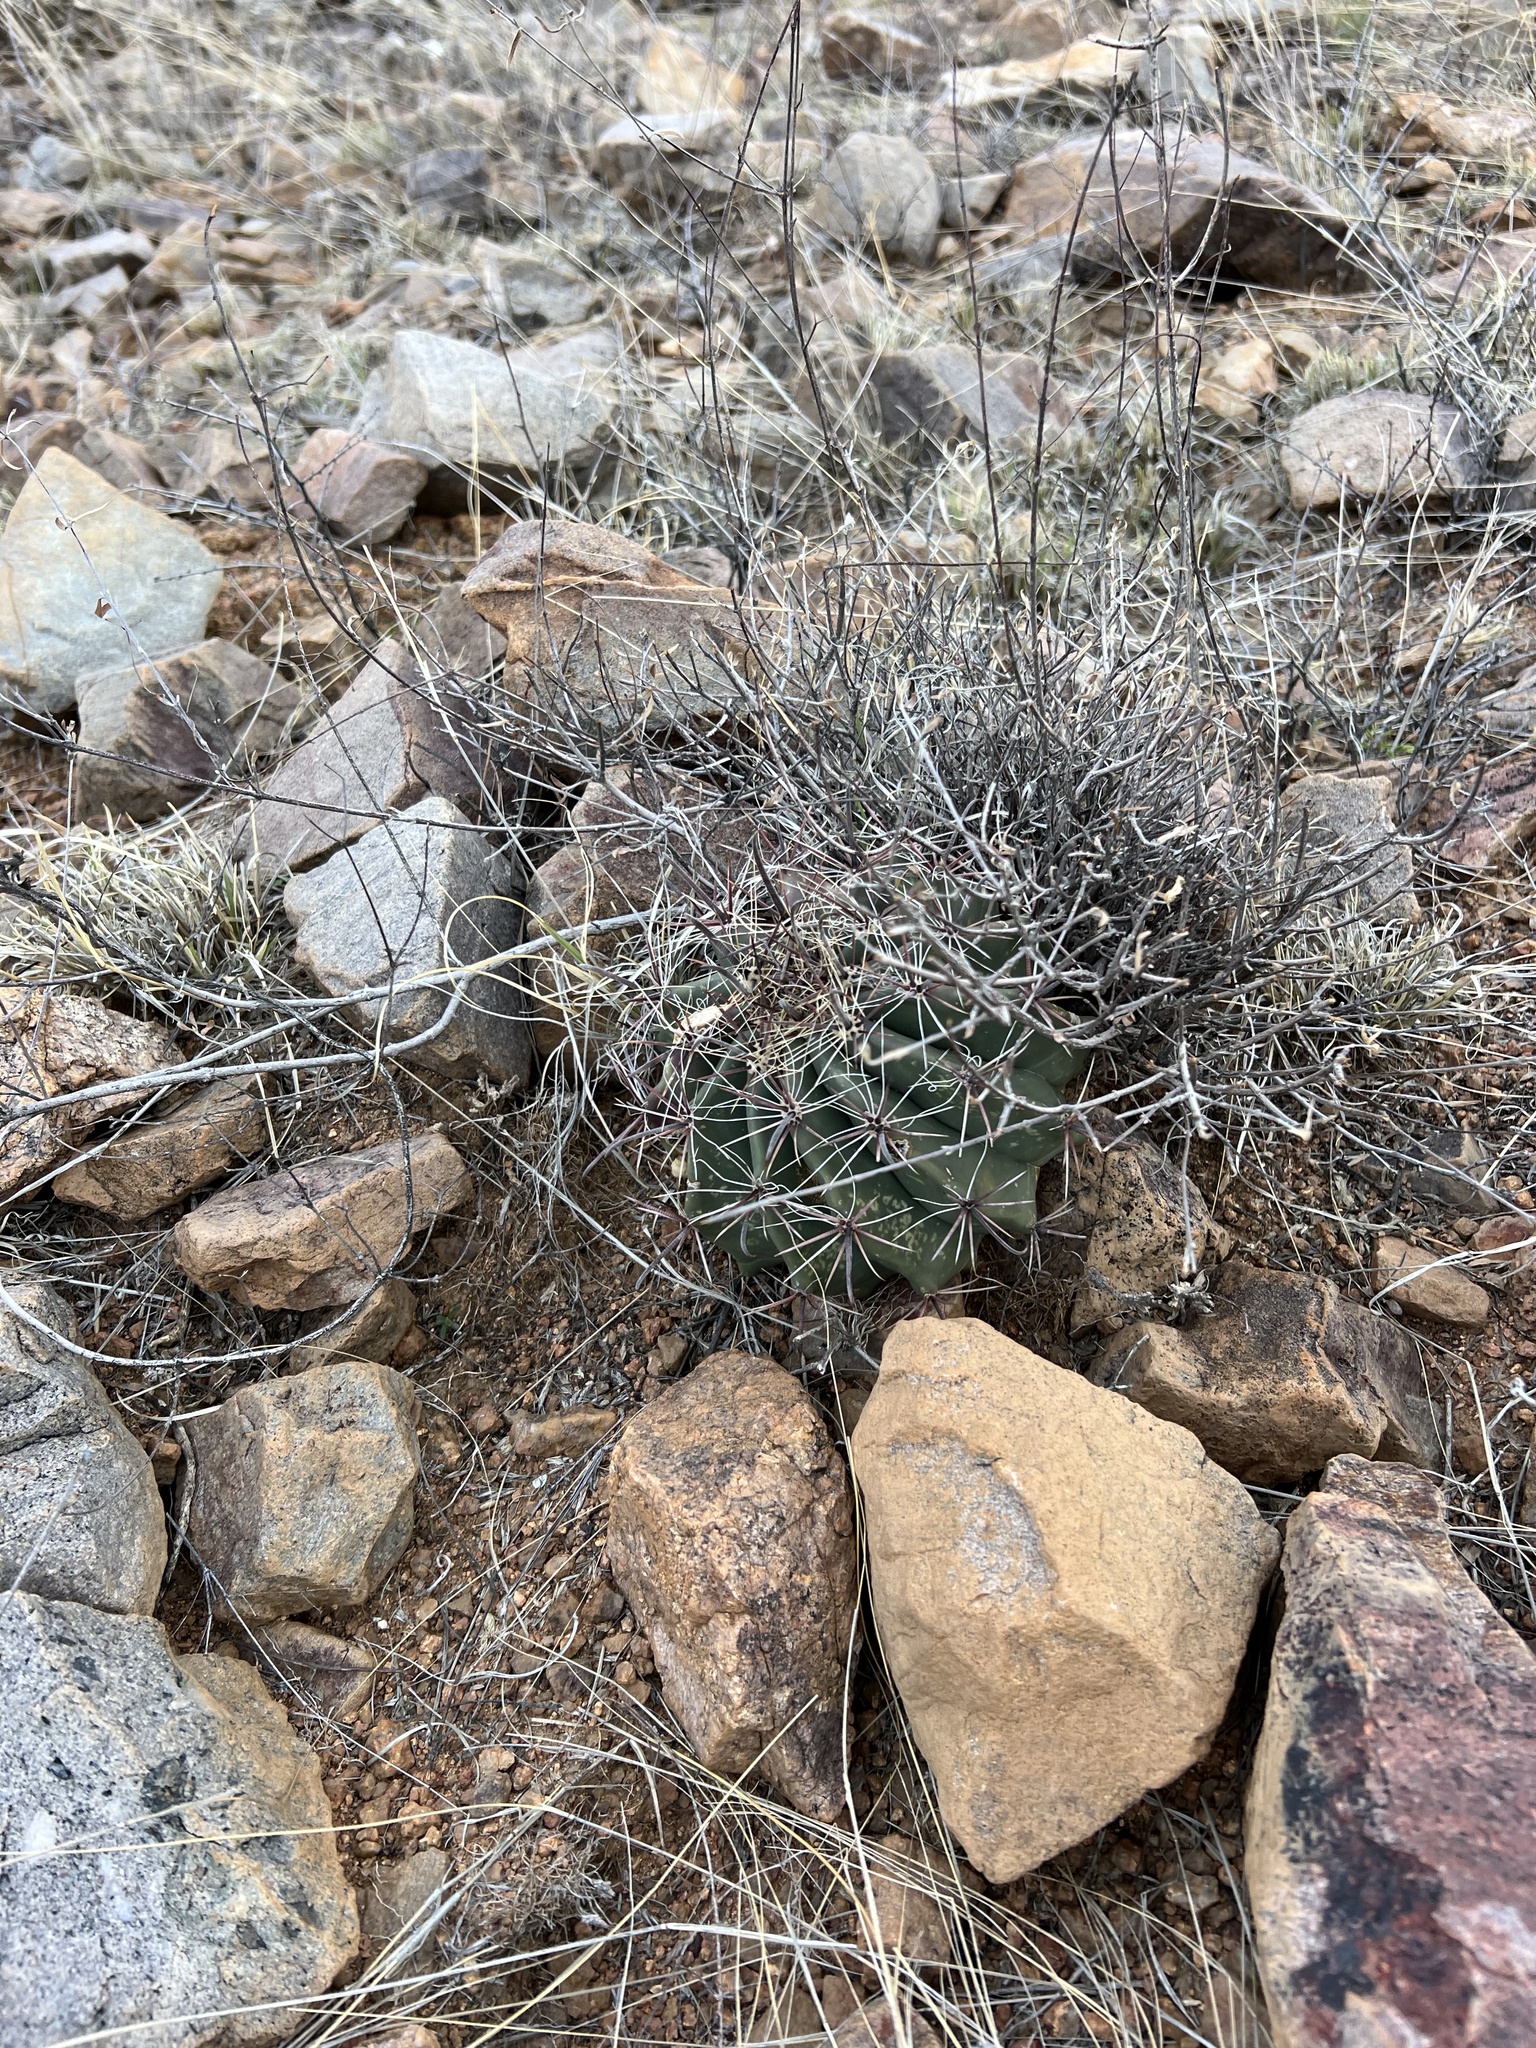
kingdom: Plantae
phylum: Tracheophyta
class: Magnoliopsida
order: Caryophyllales
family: Cactaceae
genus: Ferocactus
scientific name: Ferocactus wislizeni
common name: Candy barrel cactus
